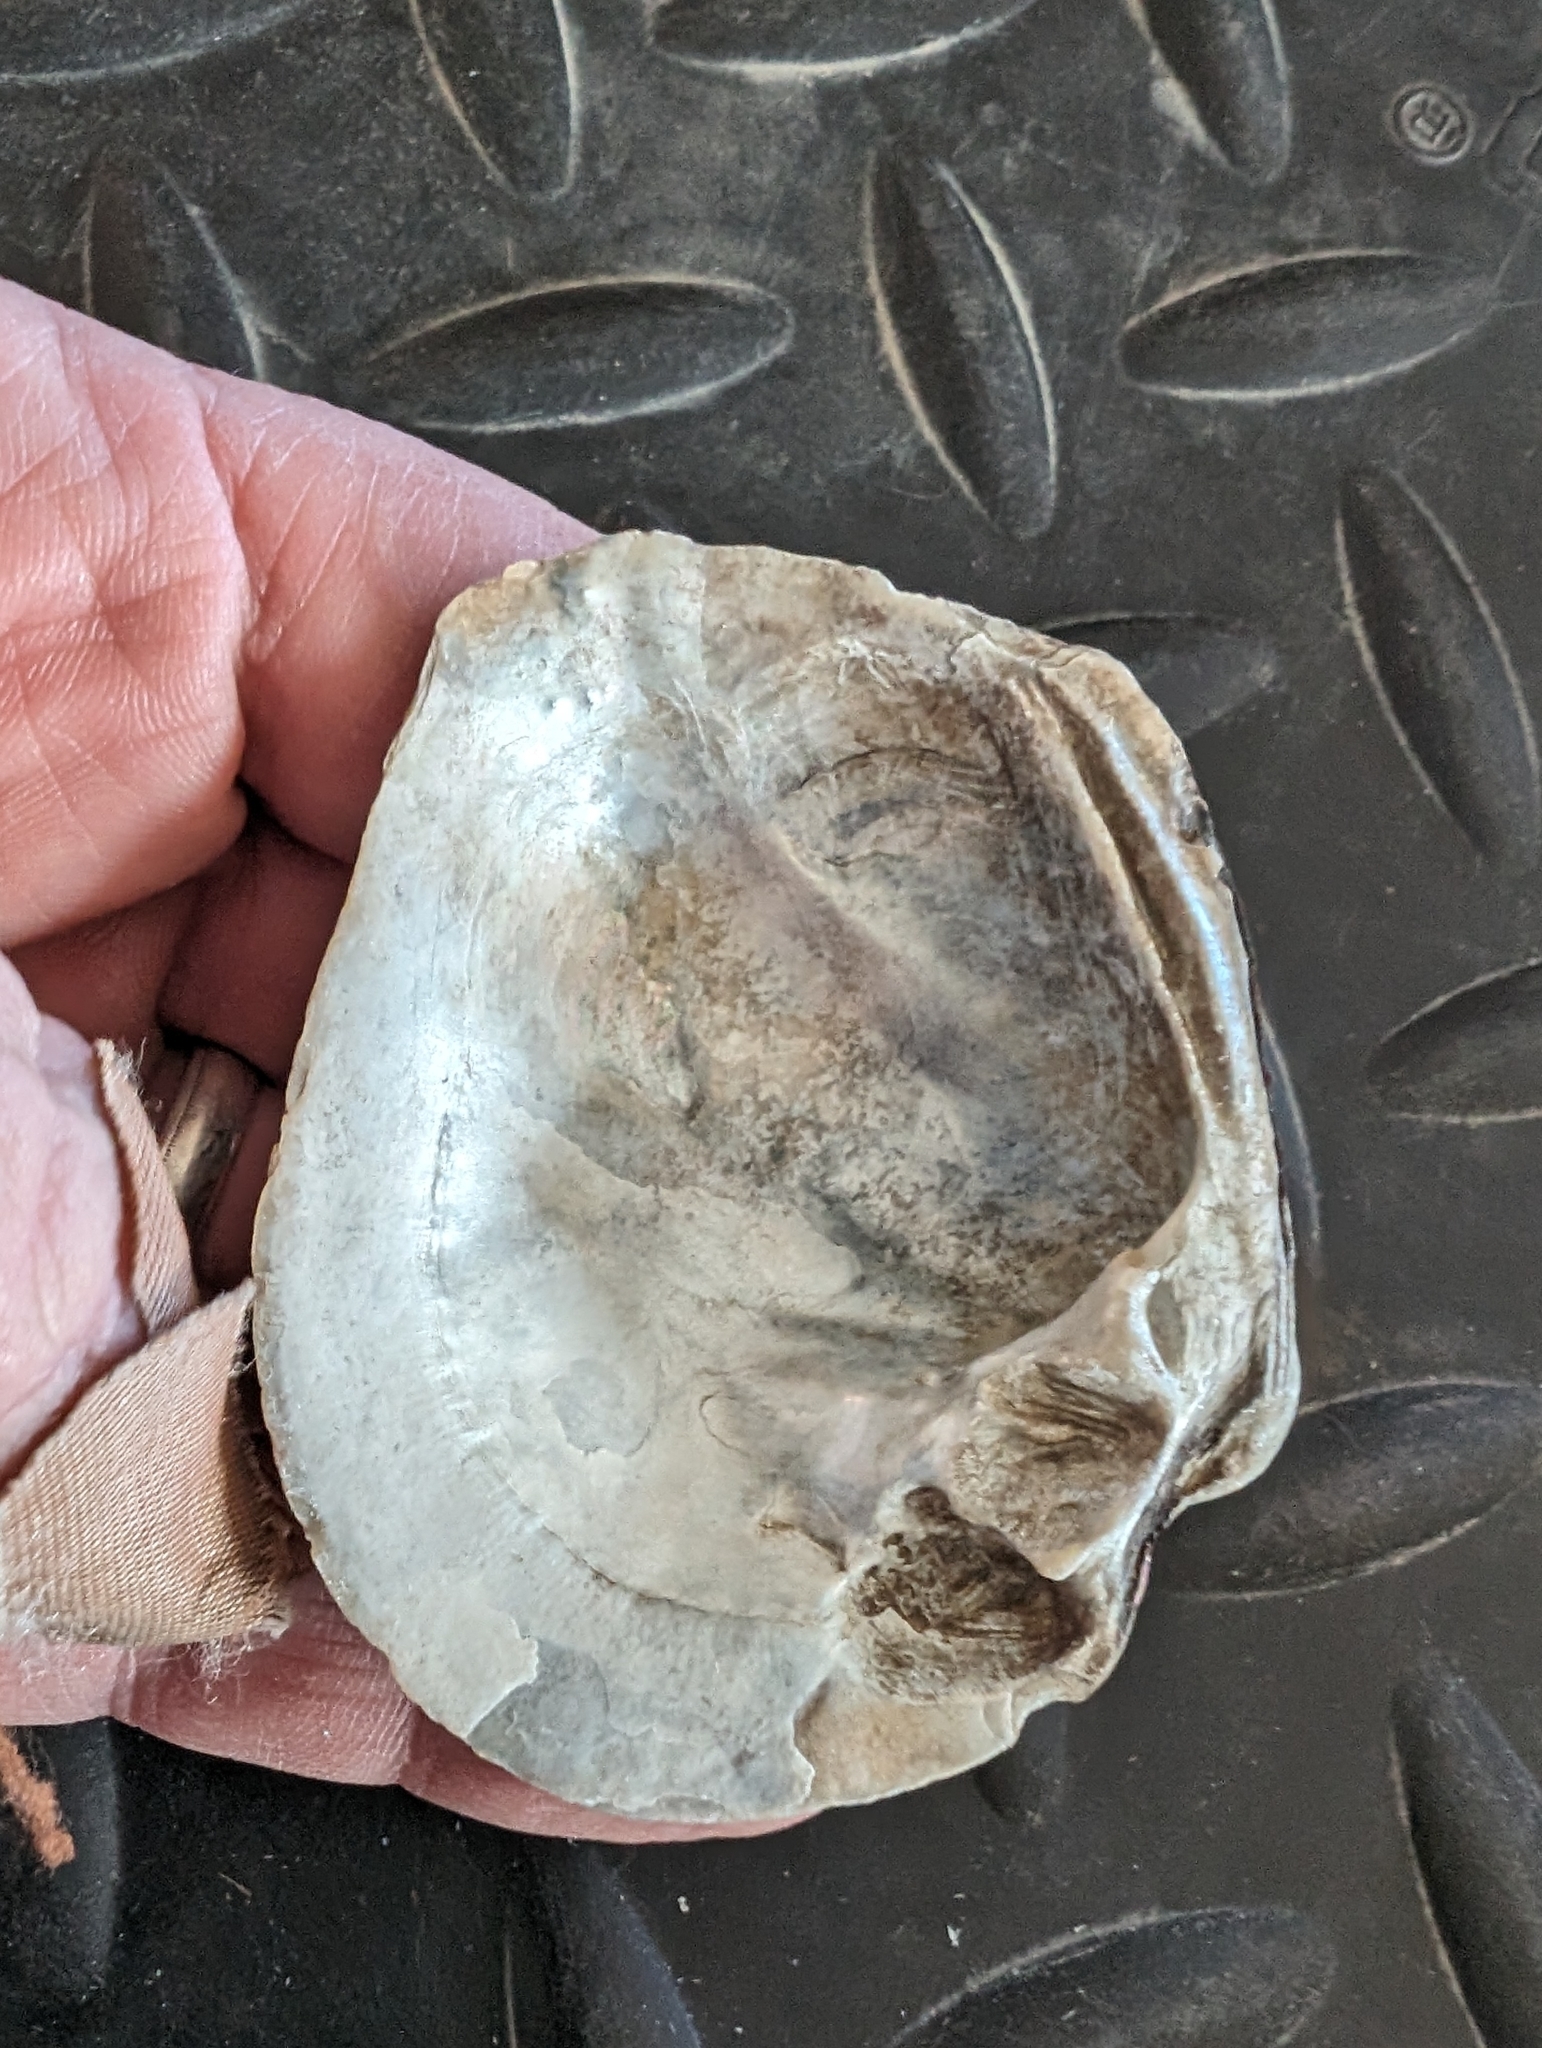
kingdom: Animalia
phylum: Mollusca
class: Bivalvia
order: Unionida
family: Unionidae
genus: Quadrula
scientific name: Quadrula quadrula
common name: Mapleleaf
